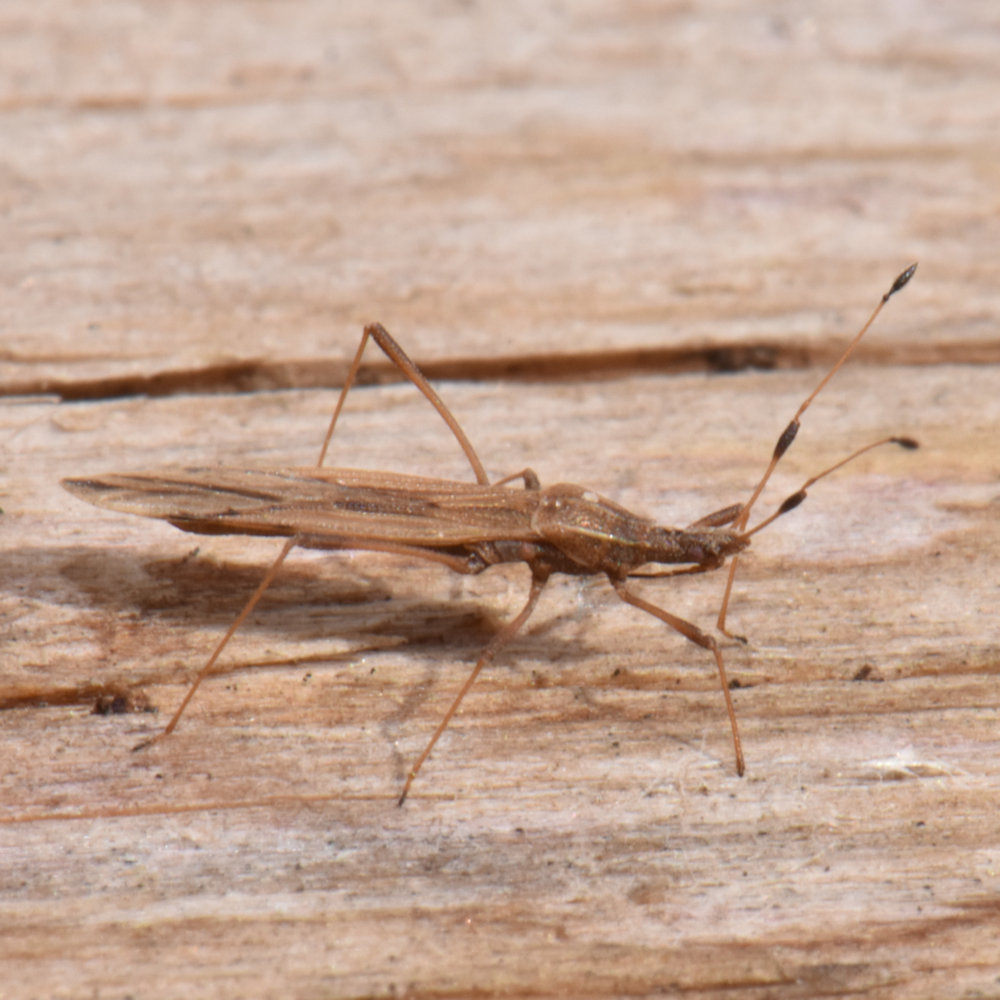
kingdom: Animalia
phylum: Arthropoda
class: Insecta
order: Hemiptera
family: Berytidae
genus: Berytinus
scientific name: Berytinus minor
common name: Stilt bug
